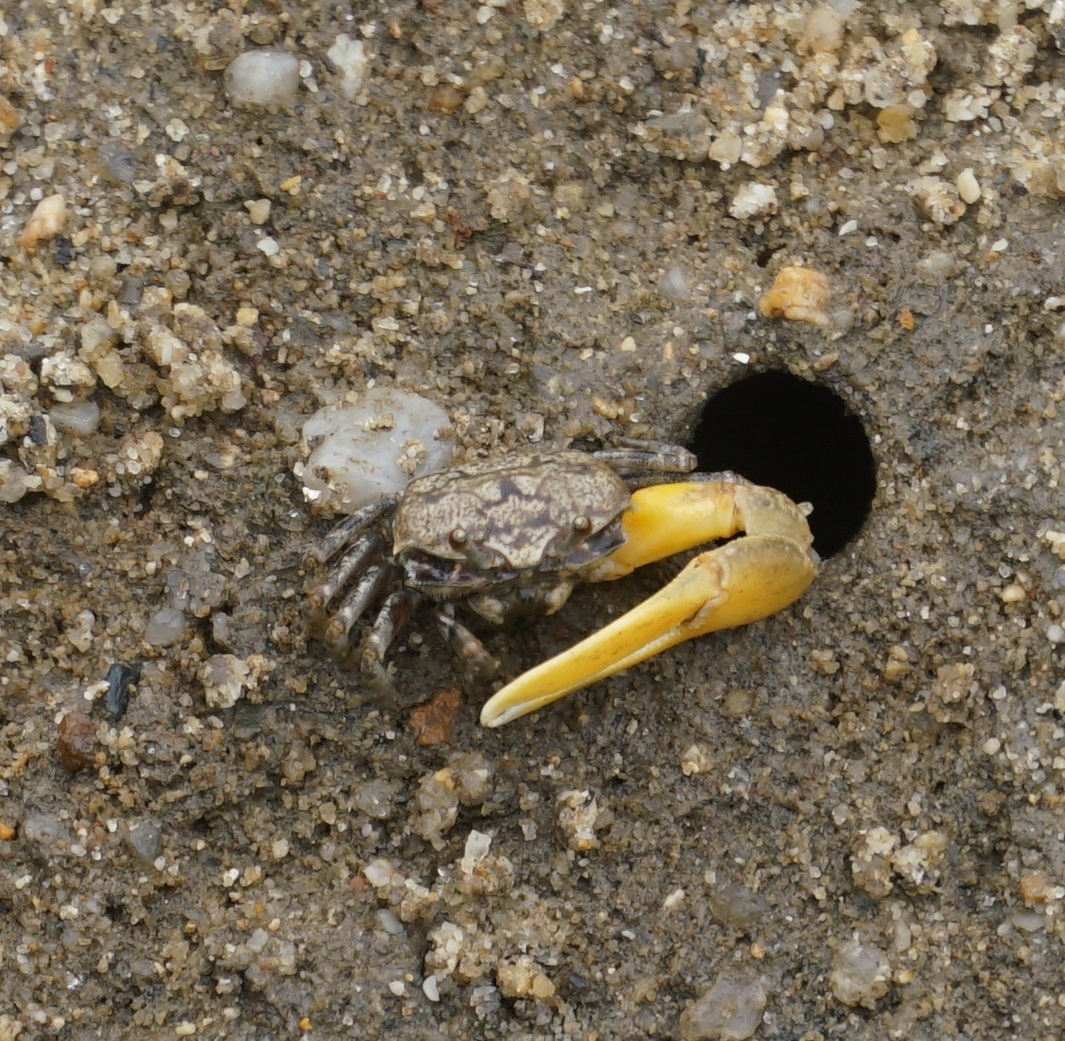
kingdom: Animalia
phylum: Arthropoda
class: Malacostraca
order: Decapoda
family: Ocypodidae
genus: Austruca
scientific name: Austruca perplexa
